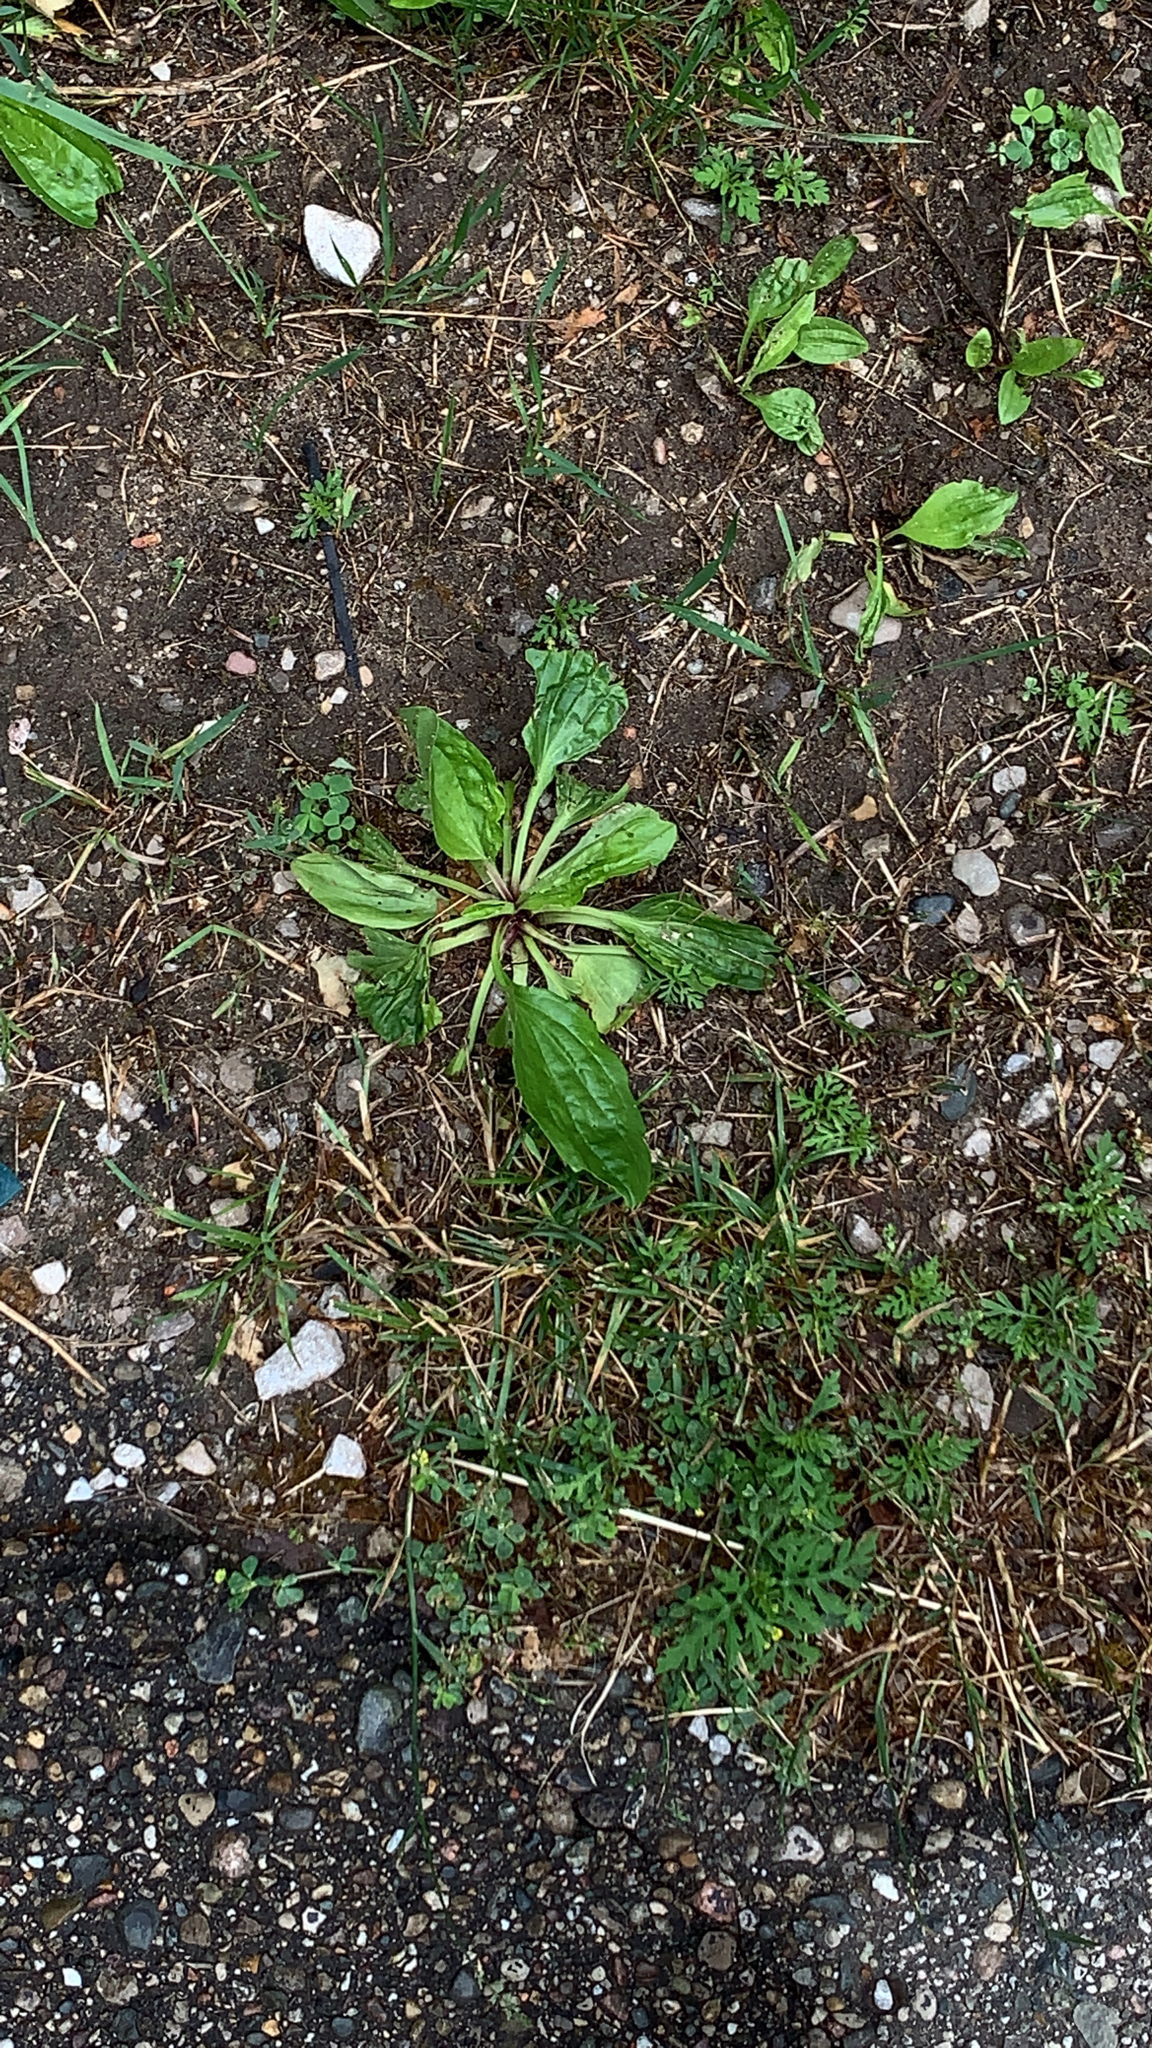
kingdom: Plantae
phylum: Tracheophyta
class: Magnoliopsida
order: Lamiales
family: Plantaginaceae
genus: Plantago
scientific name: Plantago rugelii
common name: American plantain
